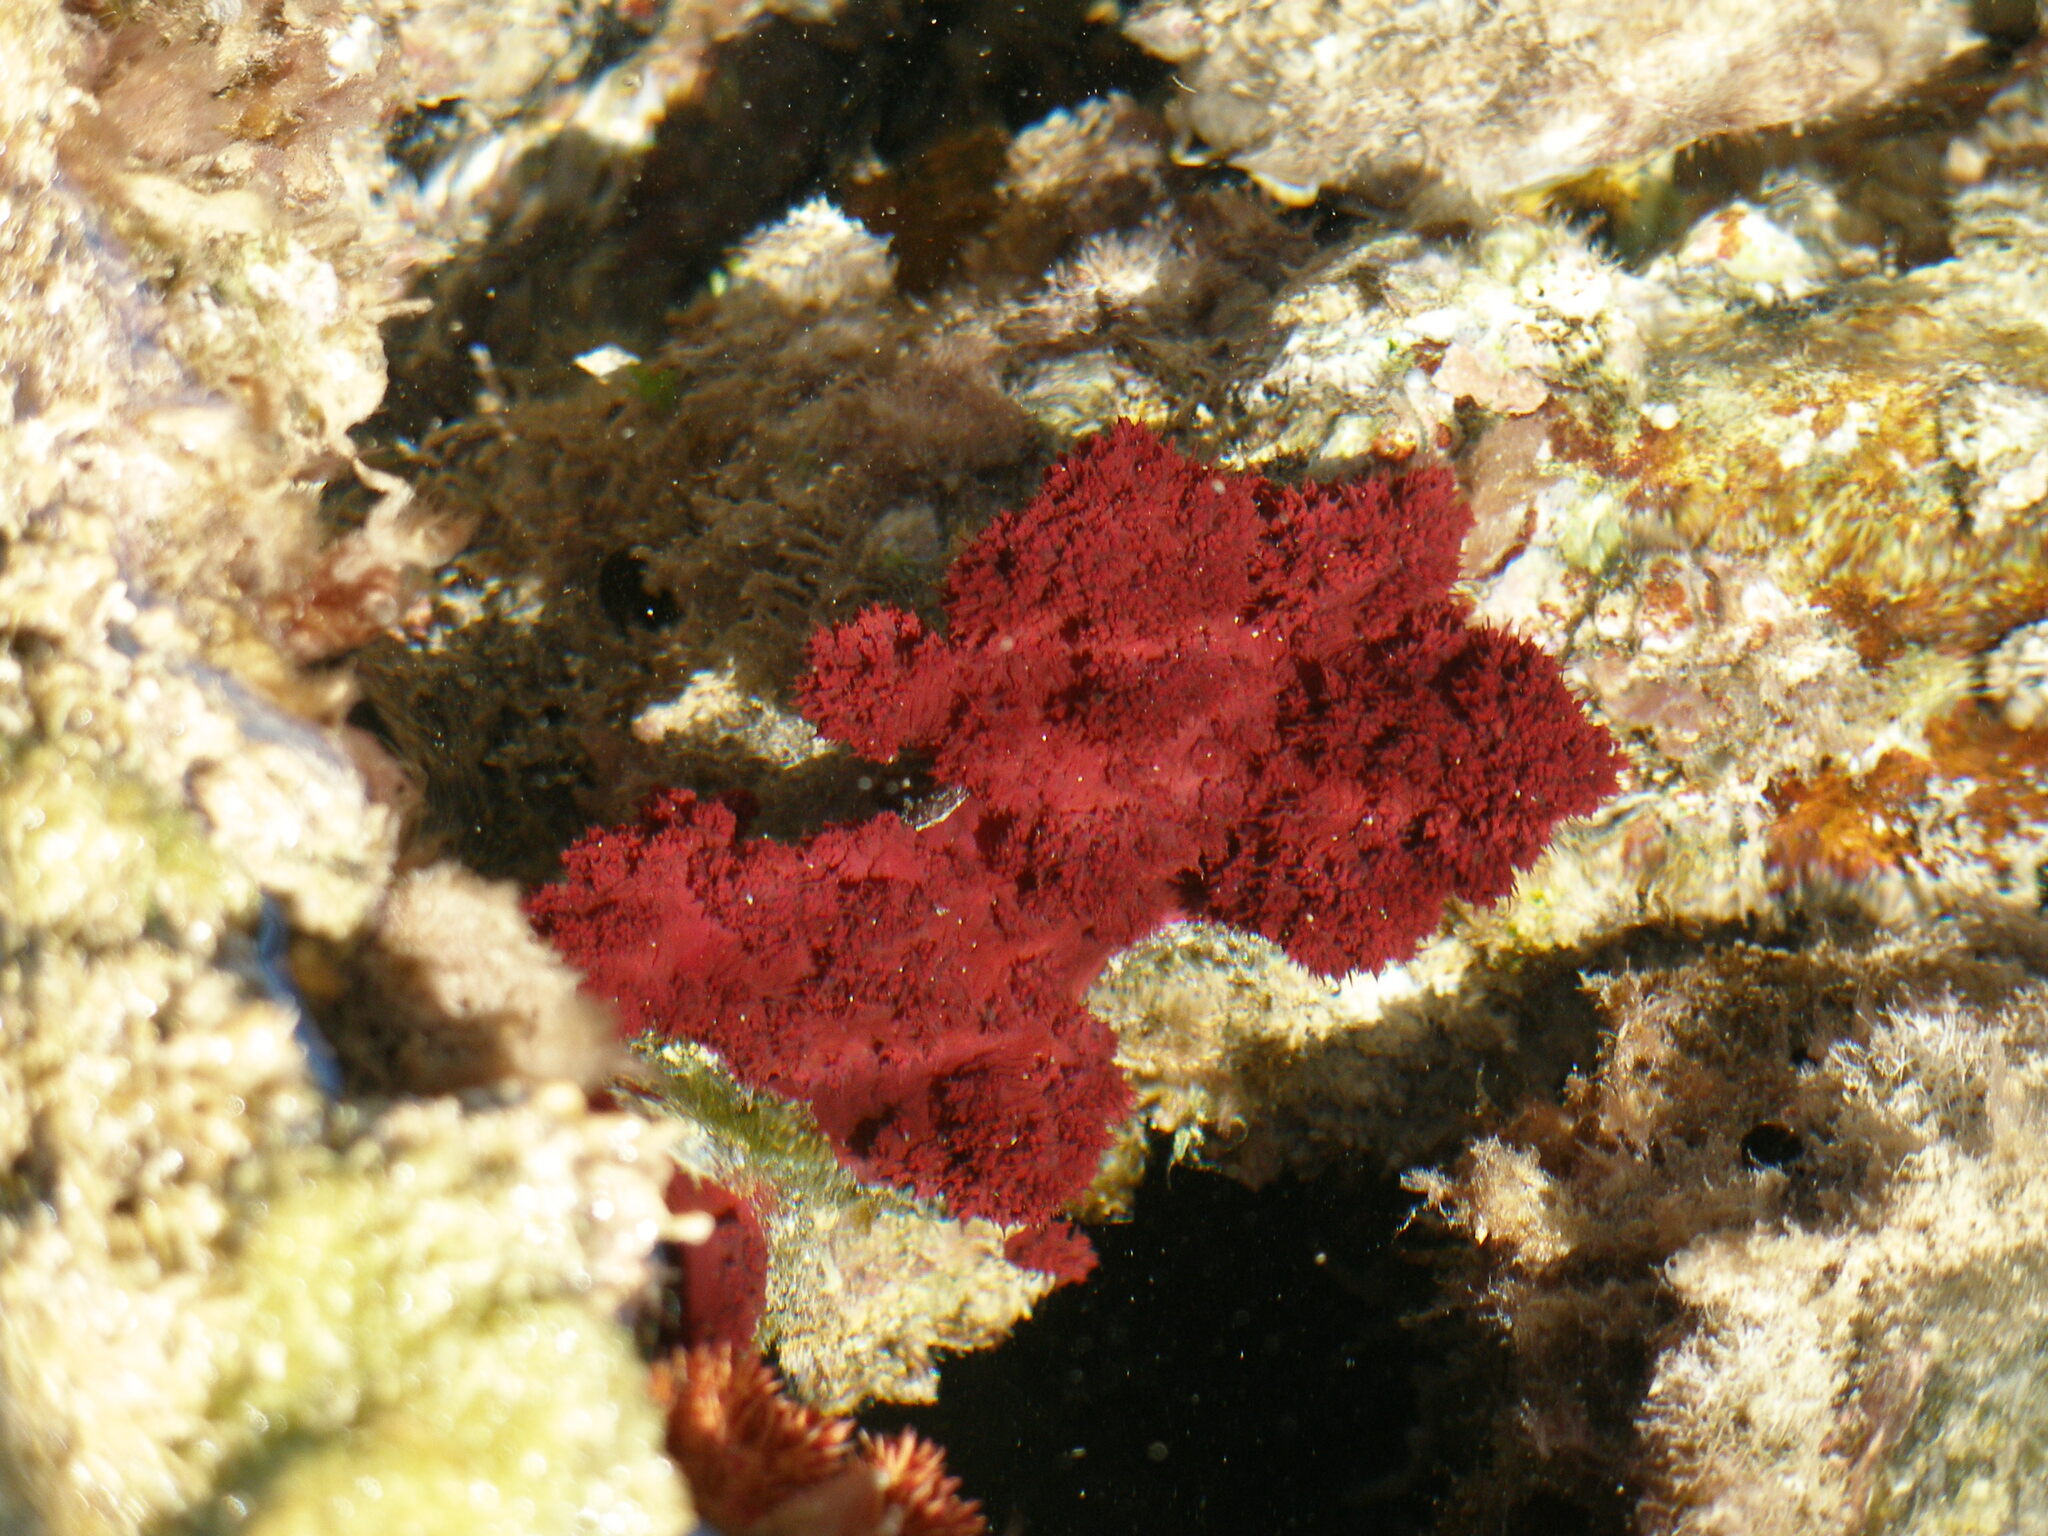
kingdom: Animalia
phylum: Cnidaria
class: Anthozoa
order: Malacalcyonacea
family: Nephtheidae
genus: Dendronephthya
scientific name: Dendronephthya hemprichi
